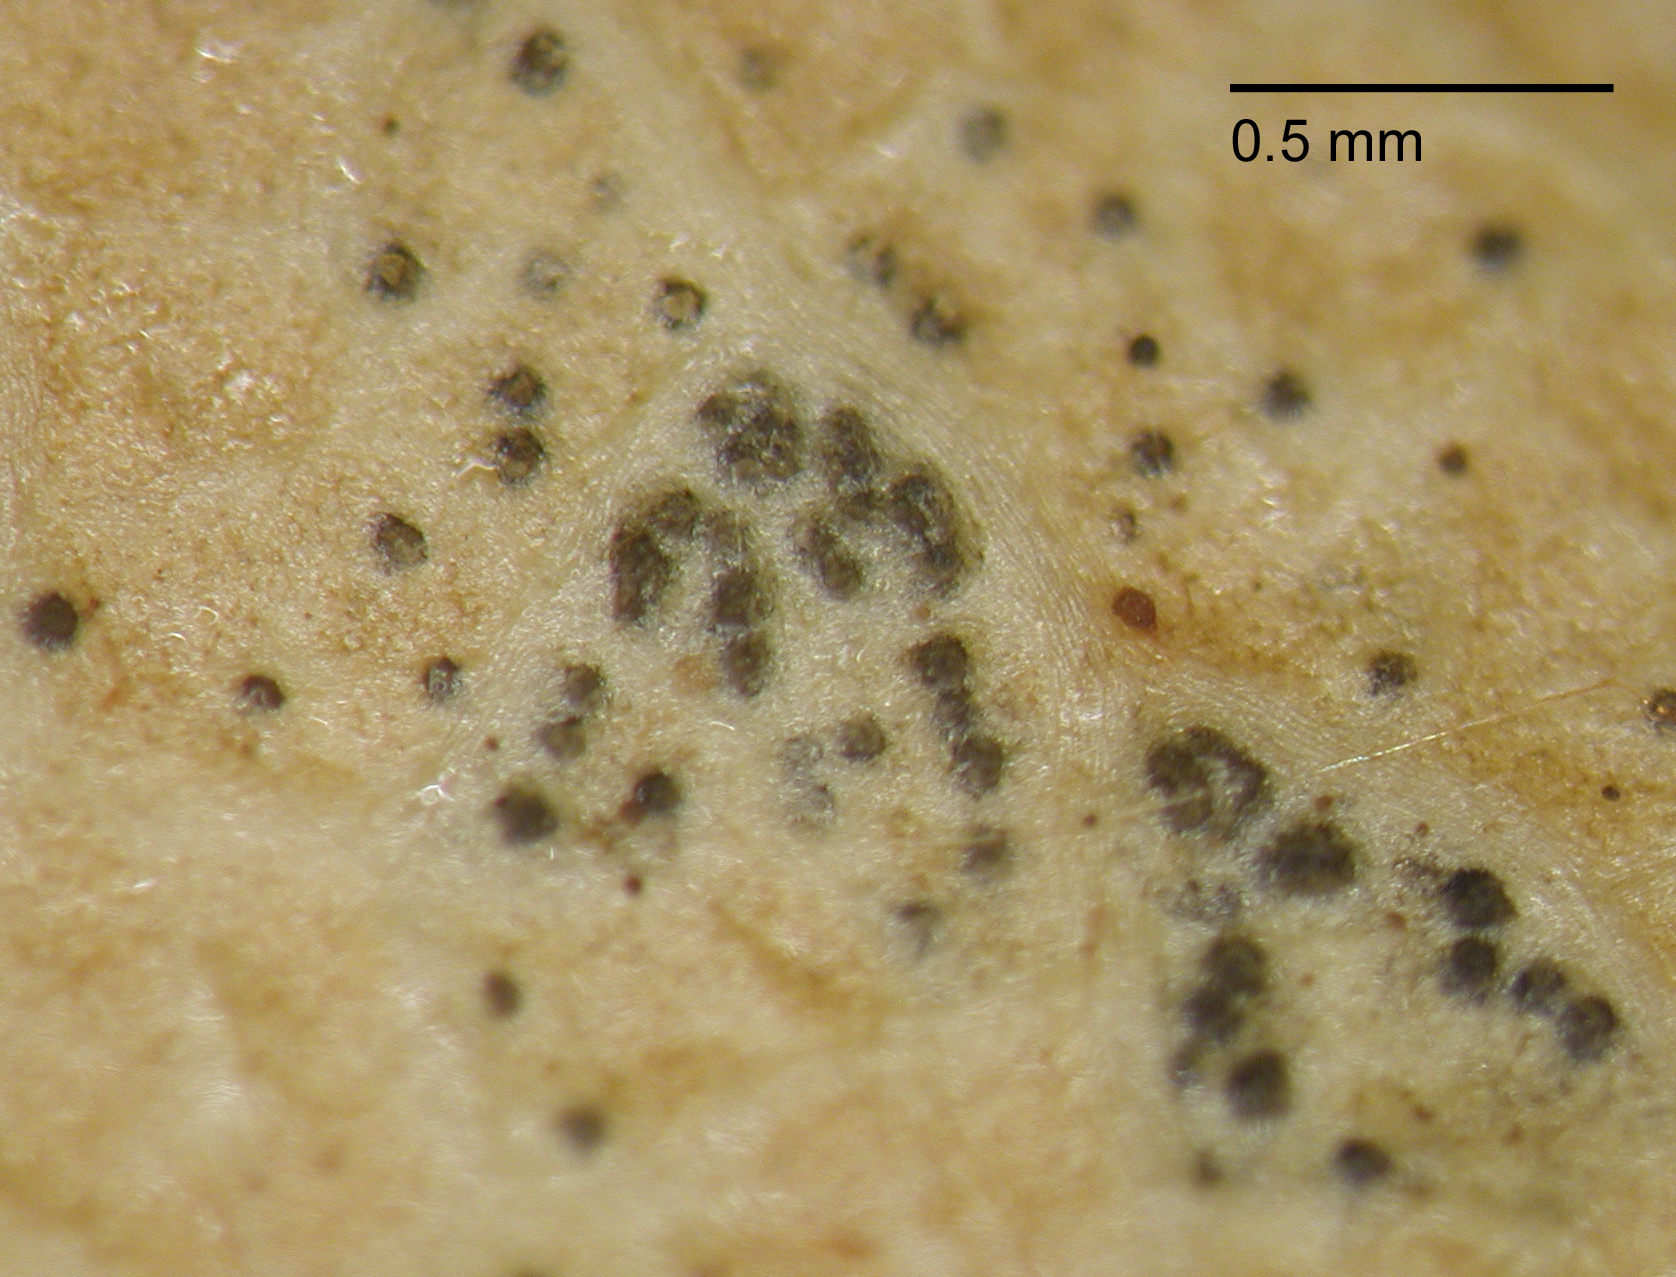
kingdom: Fungi
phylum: Ascomycota
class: Sordariomycetes
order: Diaporthales
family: Diaporthaceae
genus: Phomopsis
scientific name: Phomopsis cunninghamii
